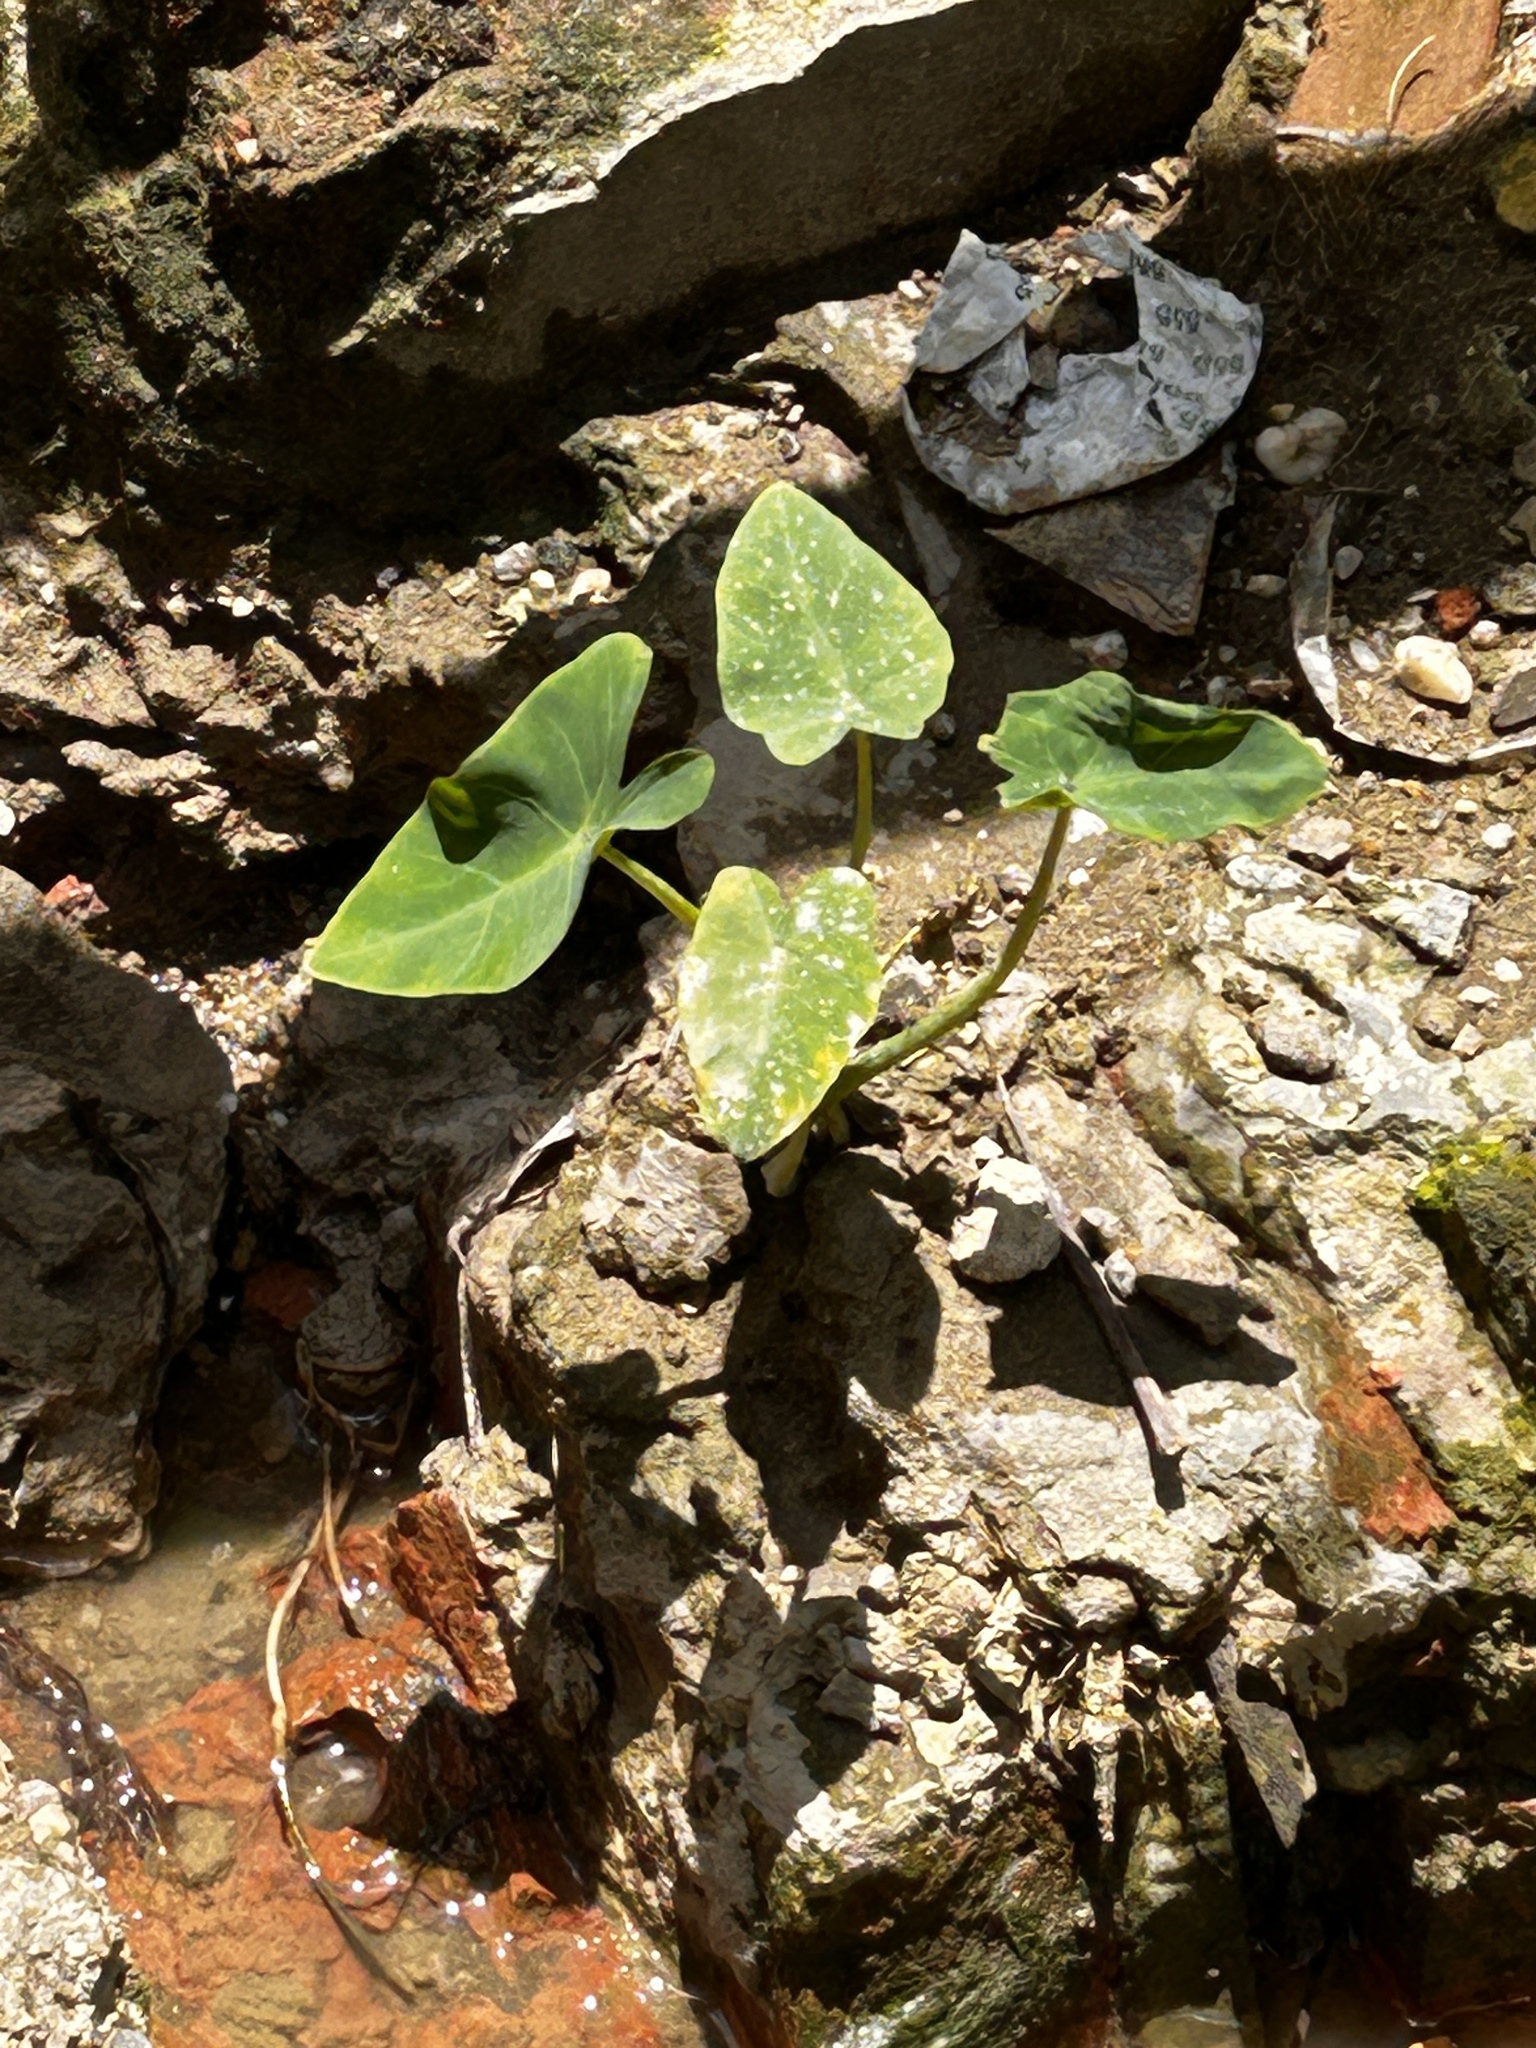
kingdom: Plantae
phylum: Tracheophyta
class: Liliopsida
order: Alismatales
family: Araceae
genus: Colocasia
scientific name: Colocasia esculenta
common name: Taro
